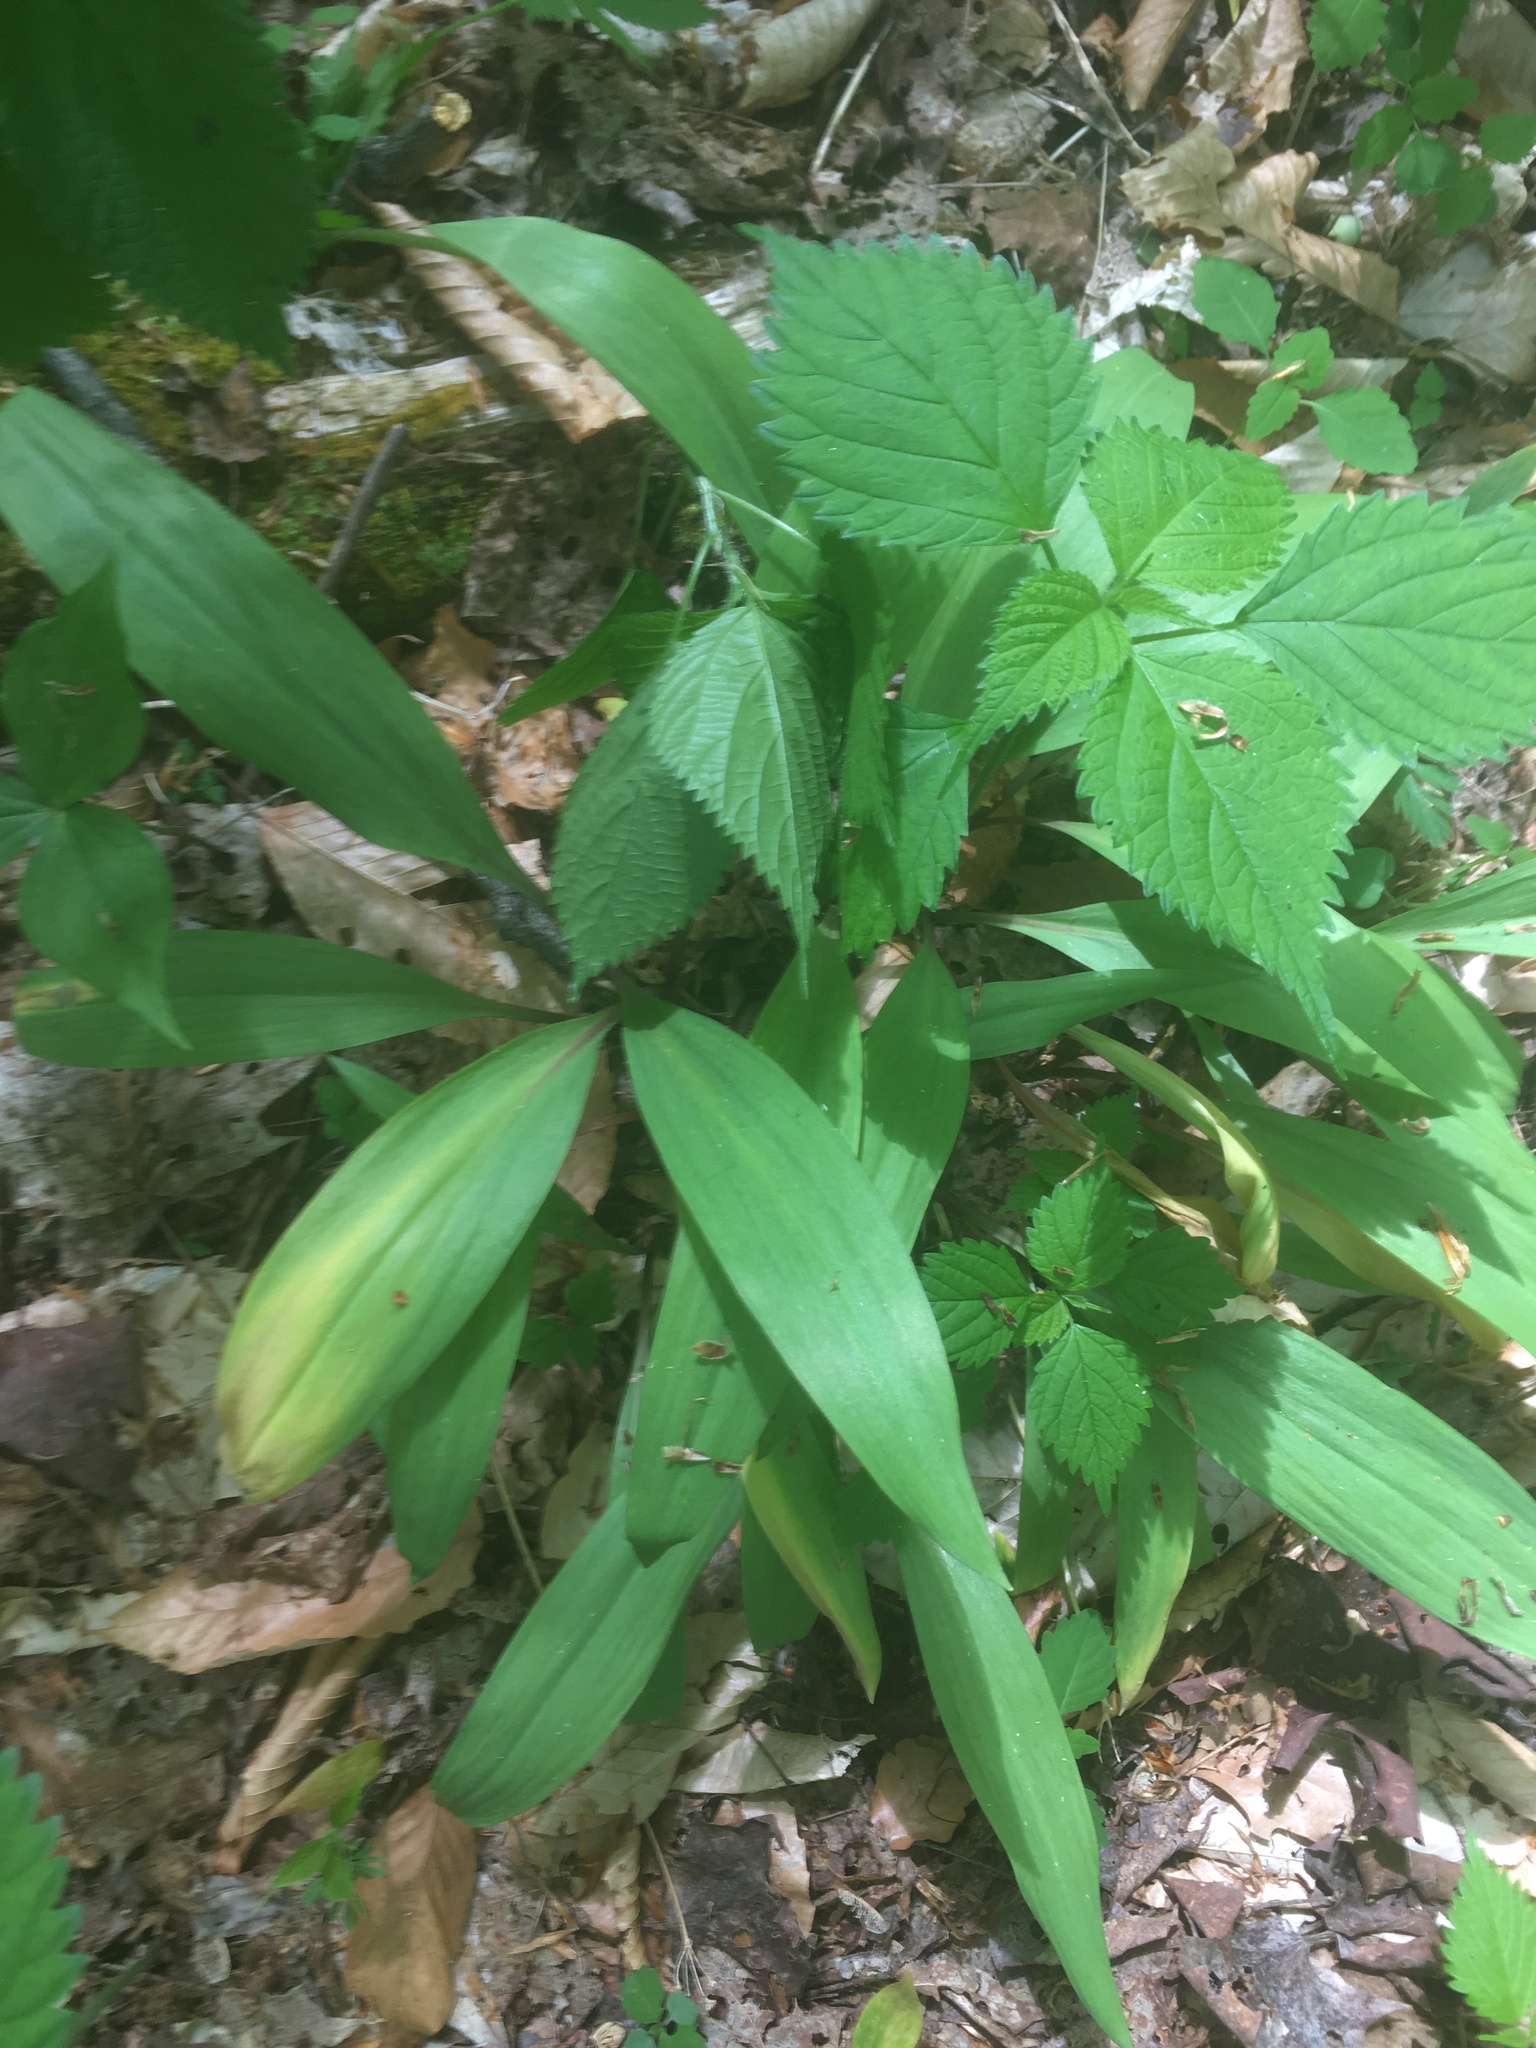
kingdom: Plantae
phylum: Tracheophyta
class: Liliopsida
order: Asparagales
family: Amaryllidaceae
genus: Allium
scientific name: Allium tricoccum
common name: Ramp
